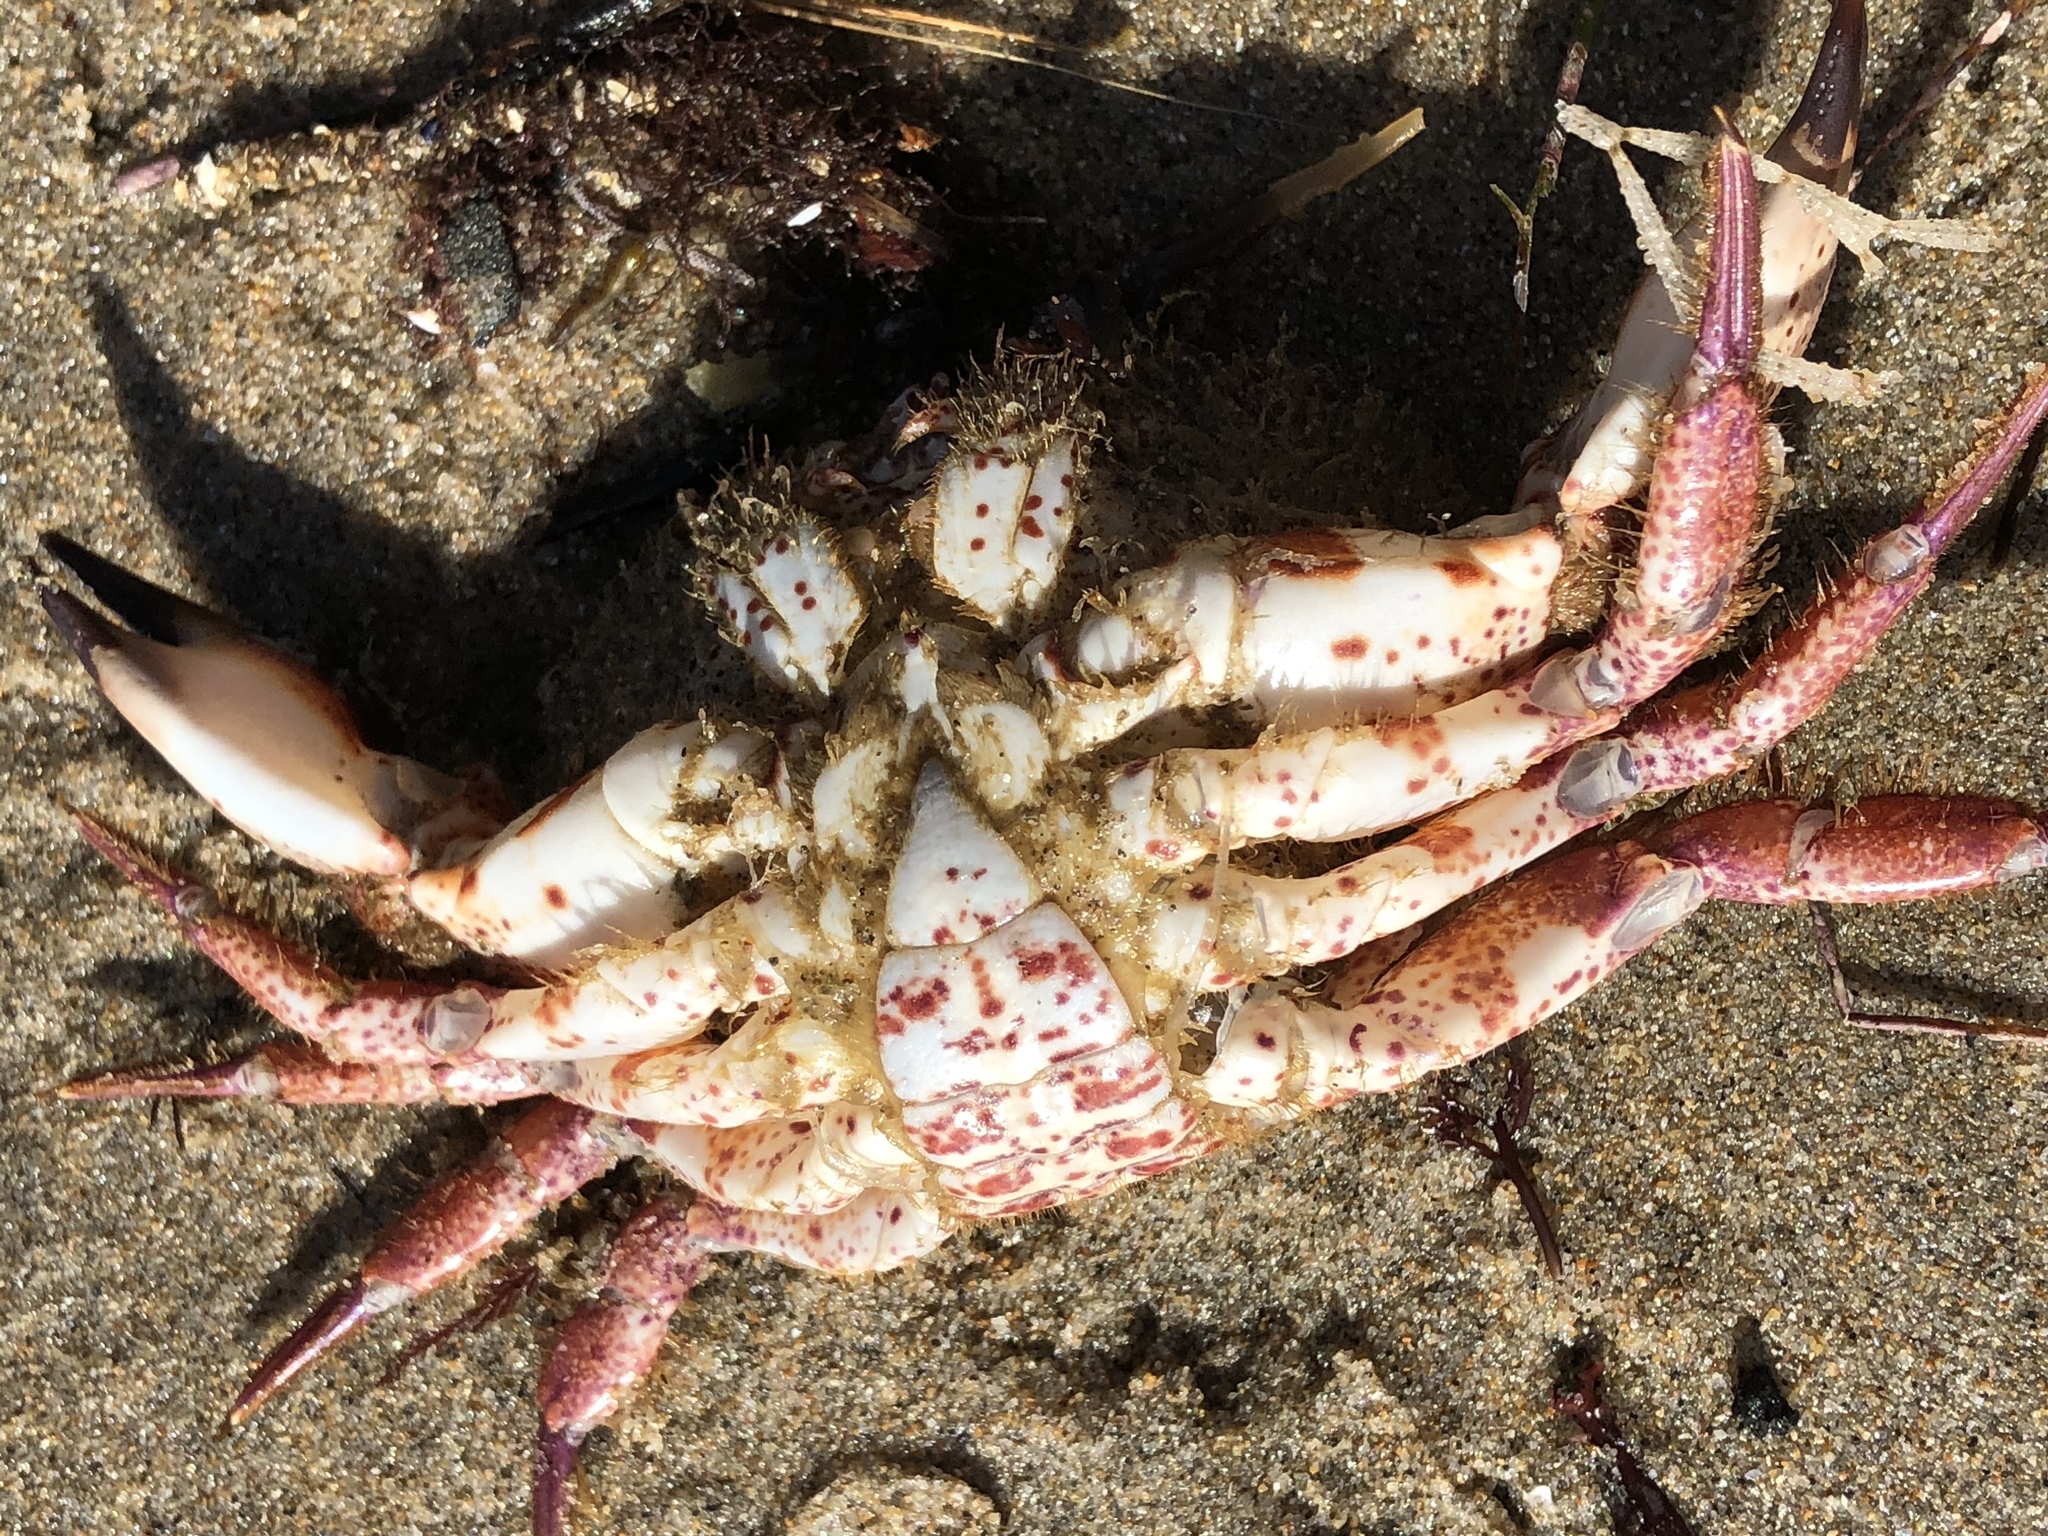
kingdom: Animalia
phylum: Arthropoda
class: Malacostraca
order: Decapoda
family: Cancridae
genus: Romaleon
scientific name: Romaleon antennarium
